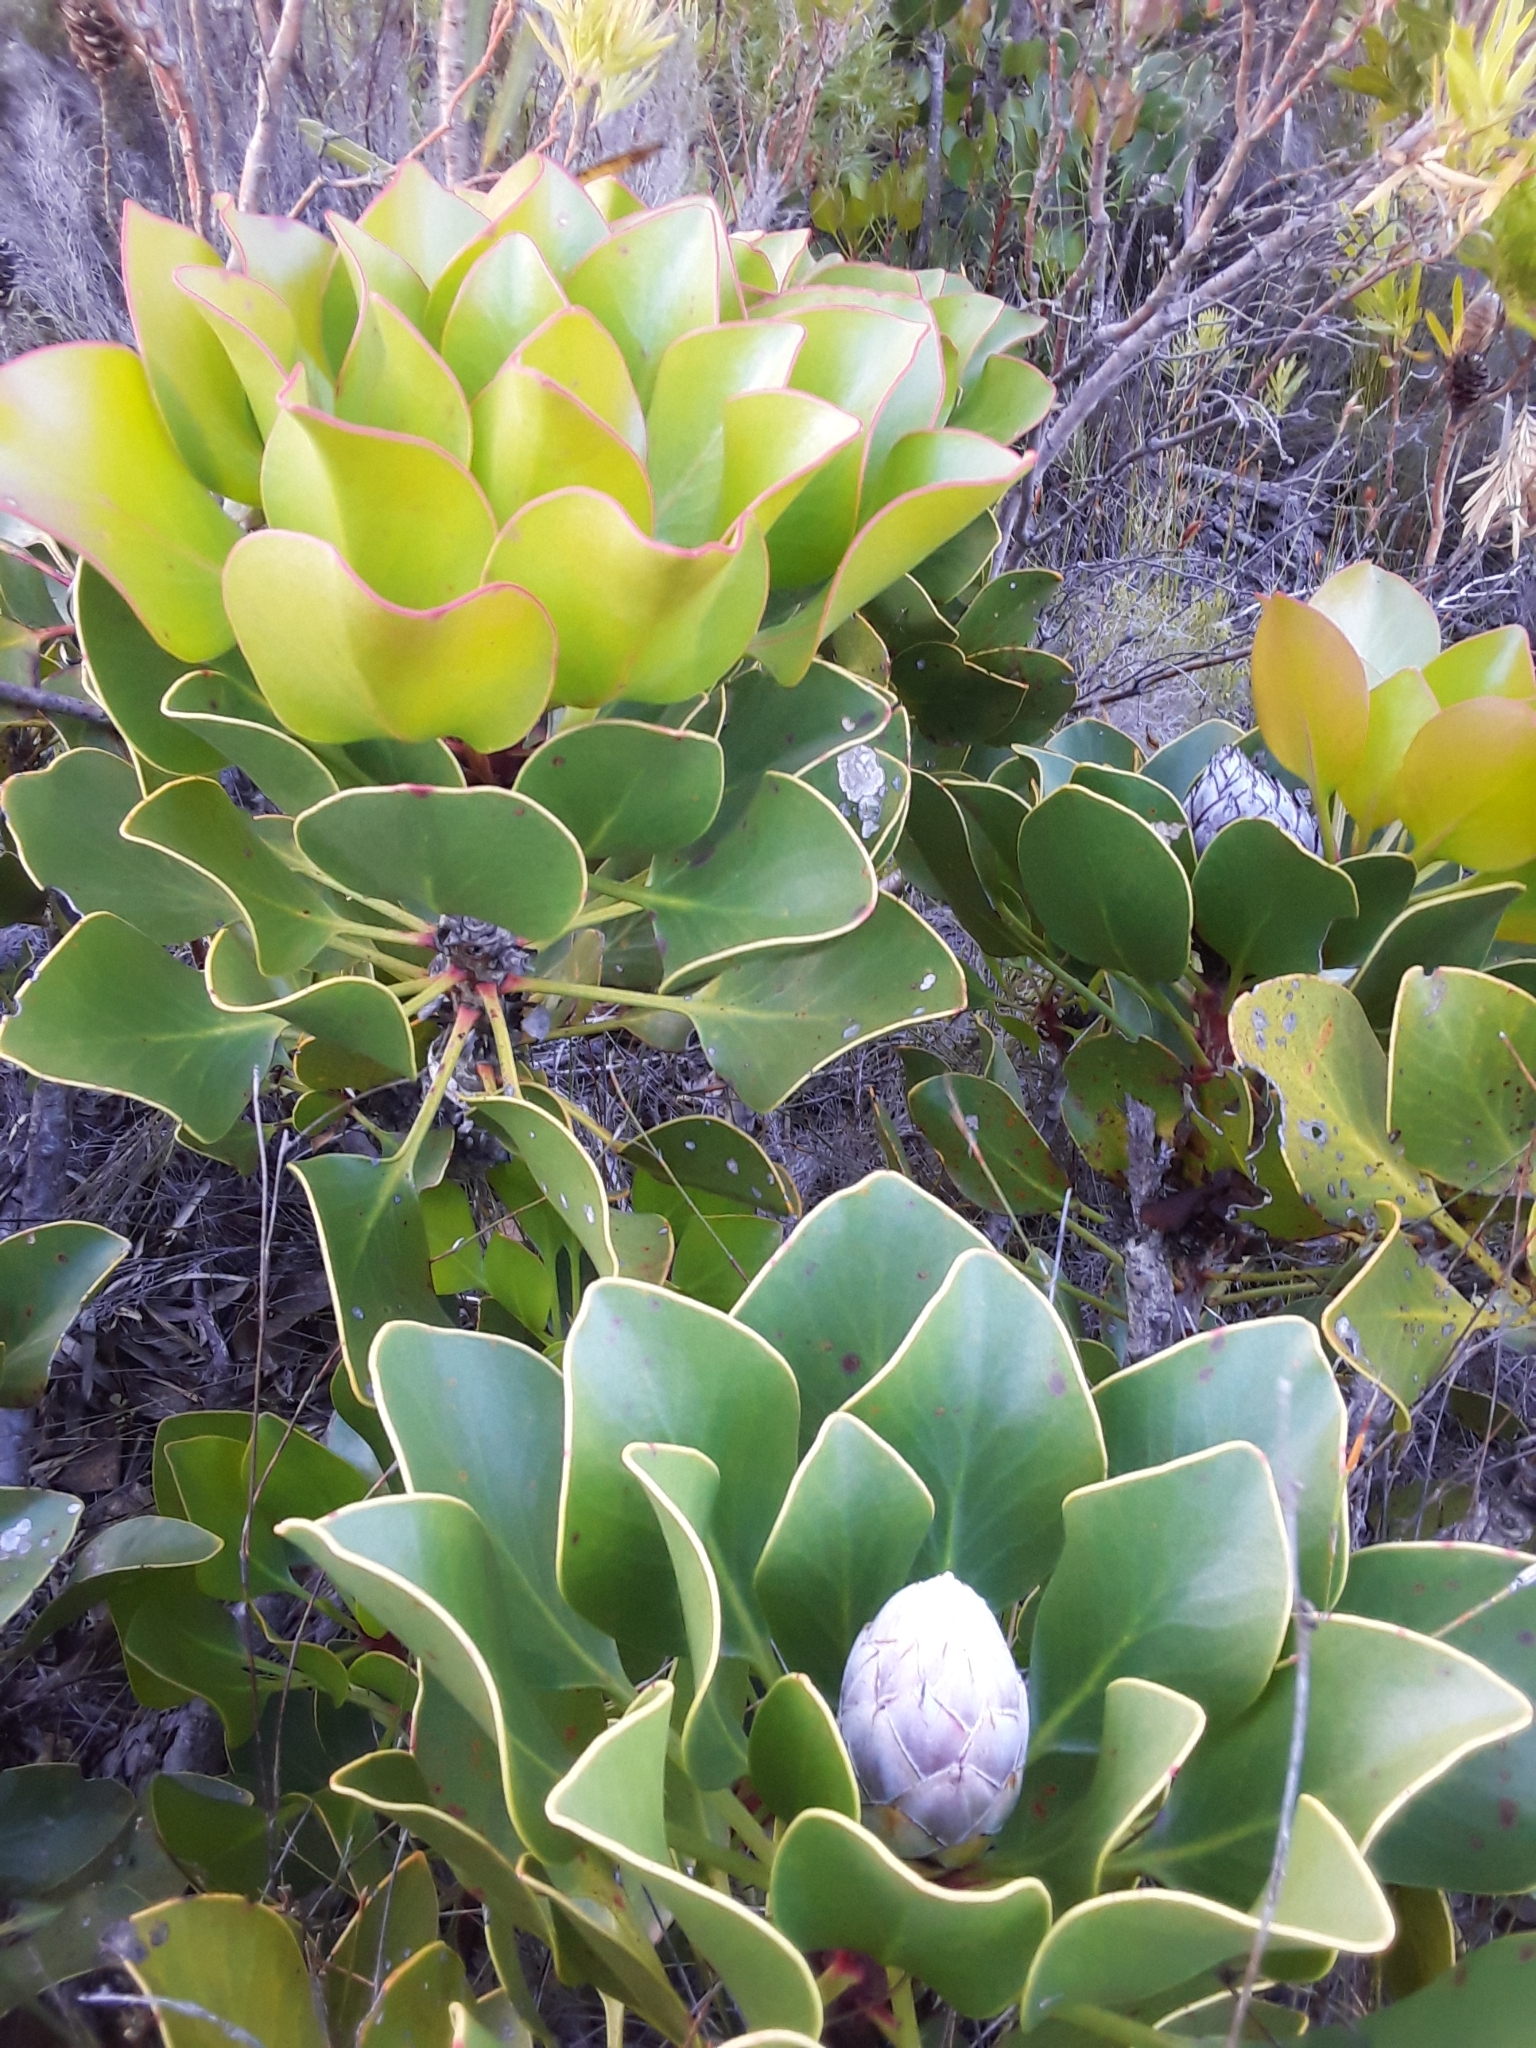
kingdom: Plantae
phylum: Tracheophyta
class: Magnoliopsida
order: Proteales
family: Proteaceae
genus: Protea
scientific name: Protea cynaroides
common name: King protea
